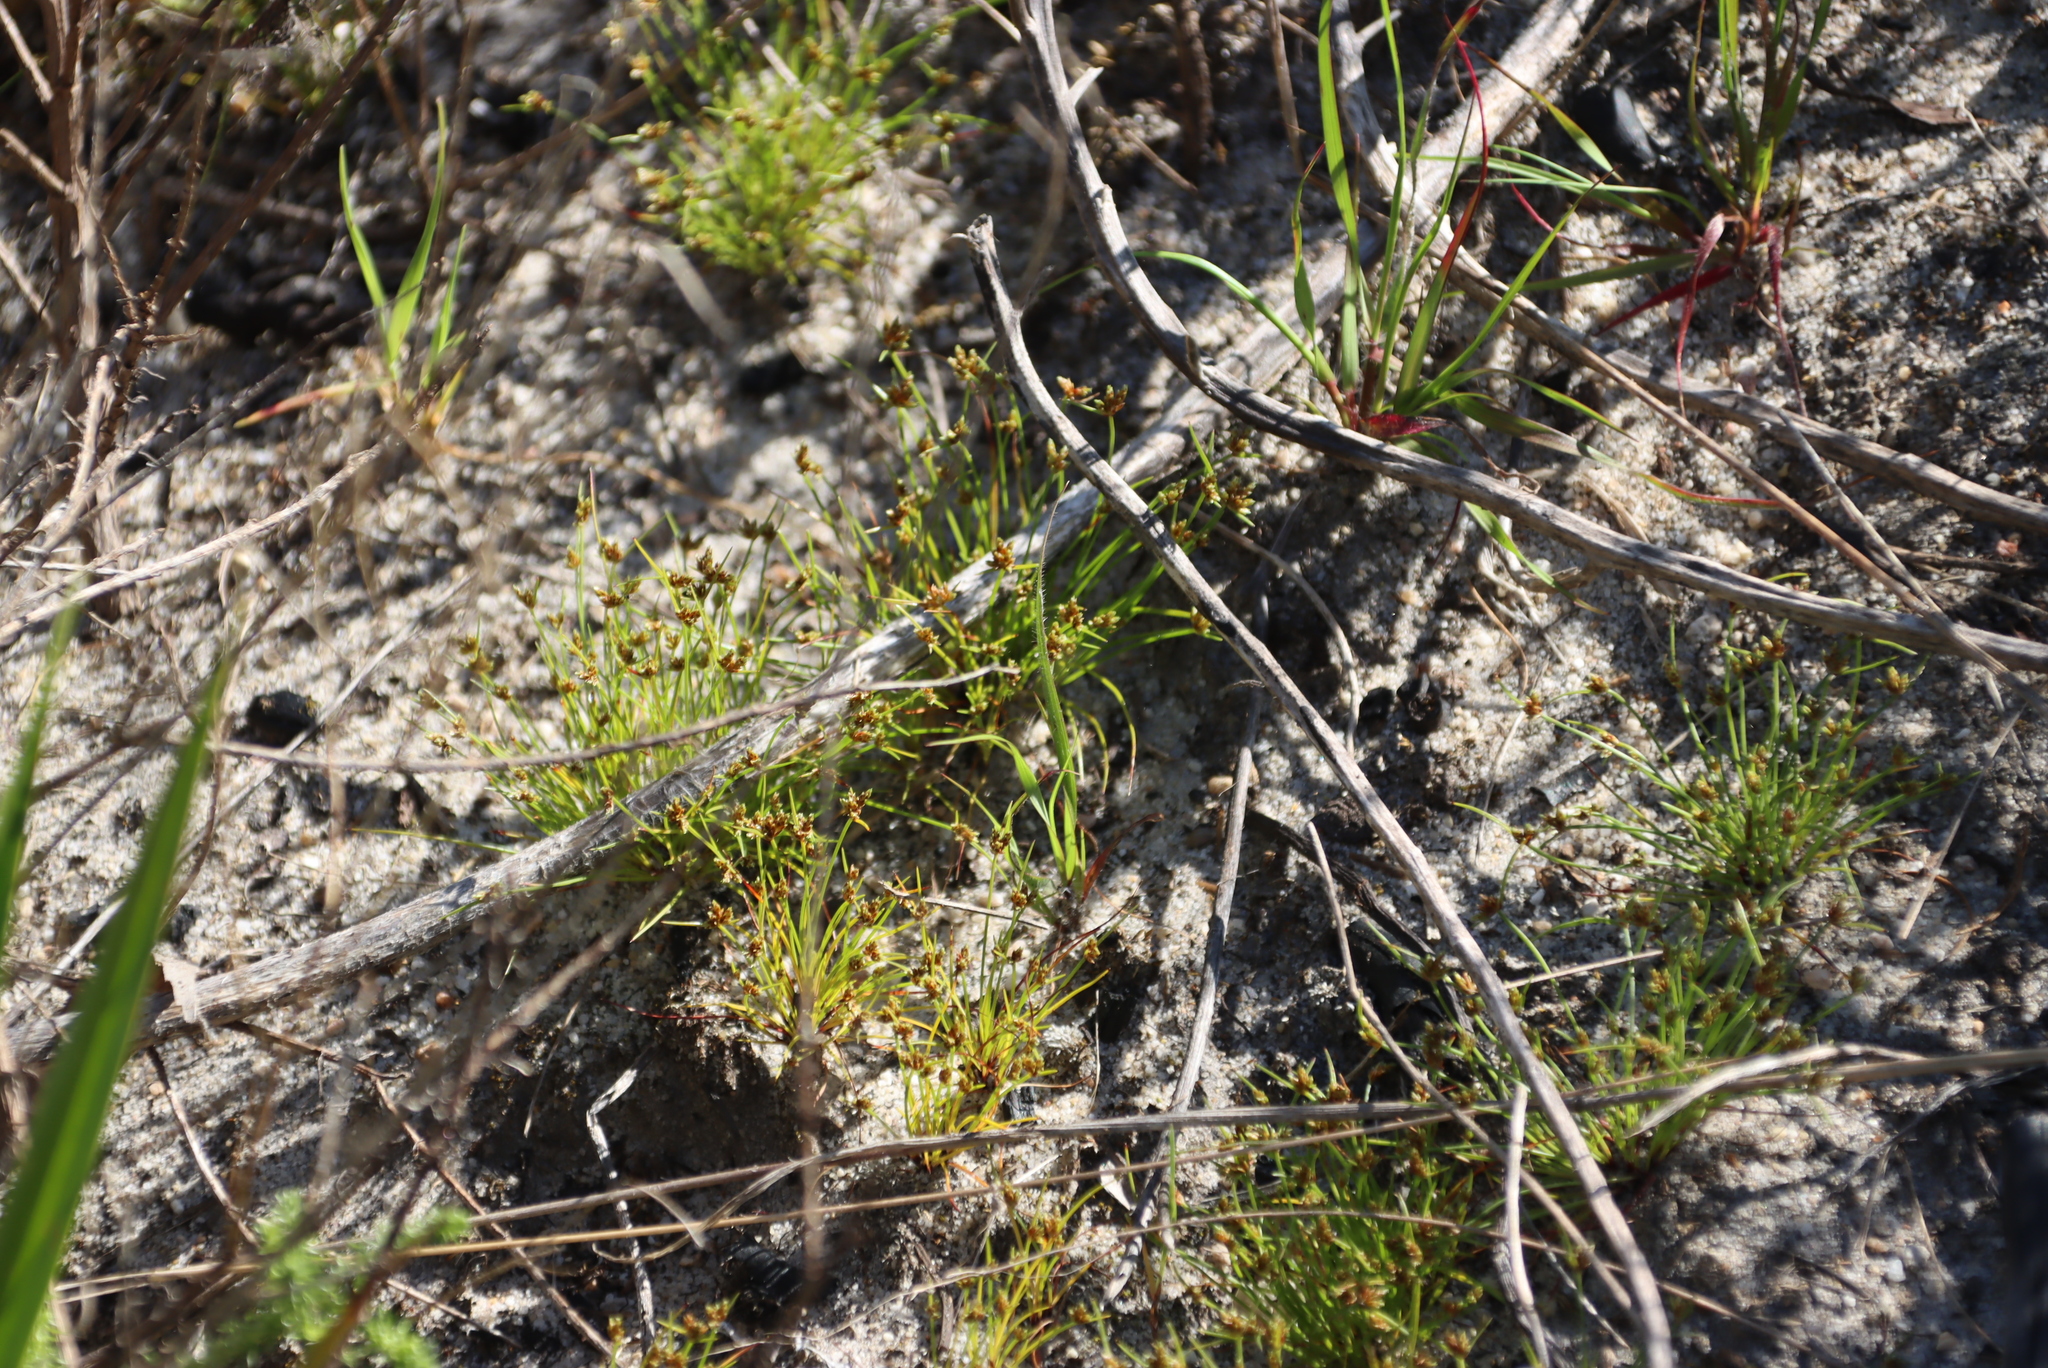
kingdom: Plantae
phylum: Tracheophyta
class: Liliopsida
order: Poales
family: Cyperaceae
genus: Isolepis
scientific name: Isolepis marginata
